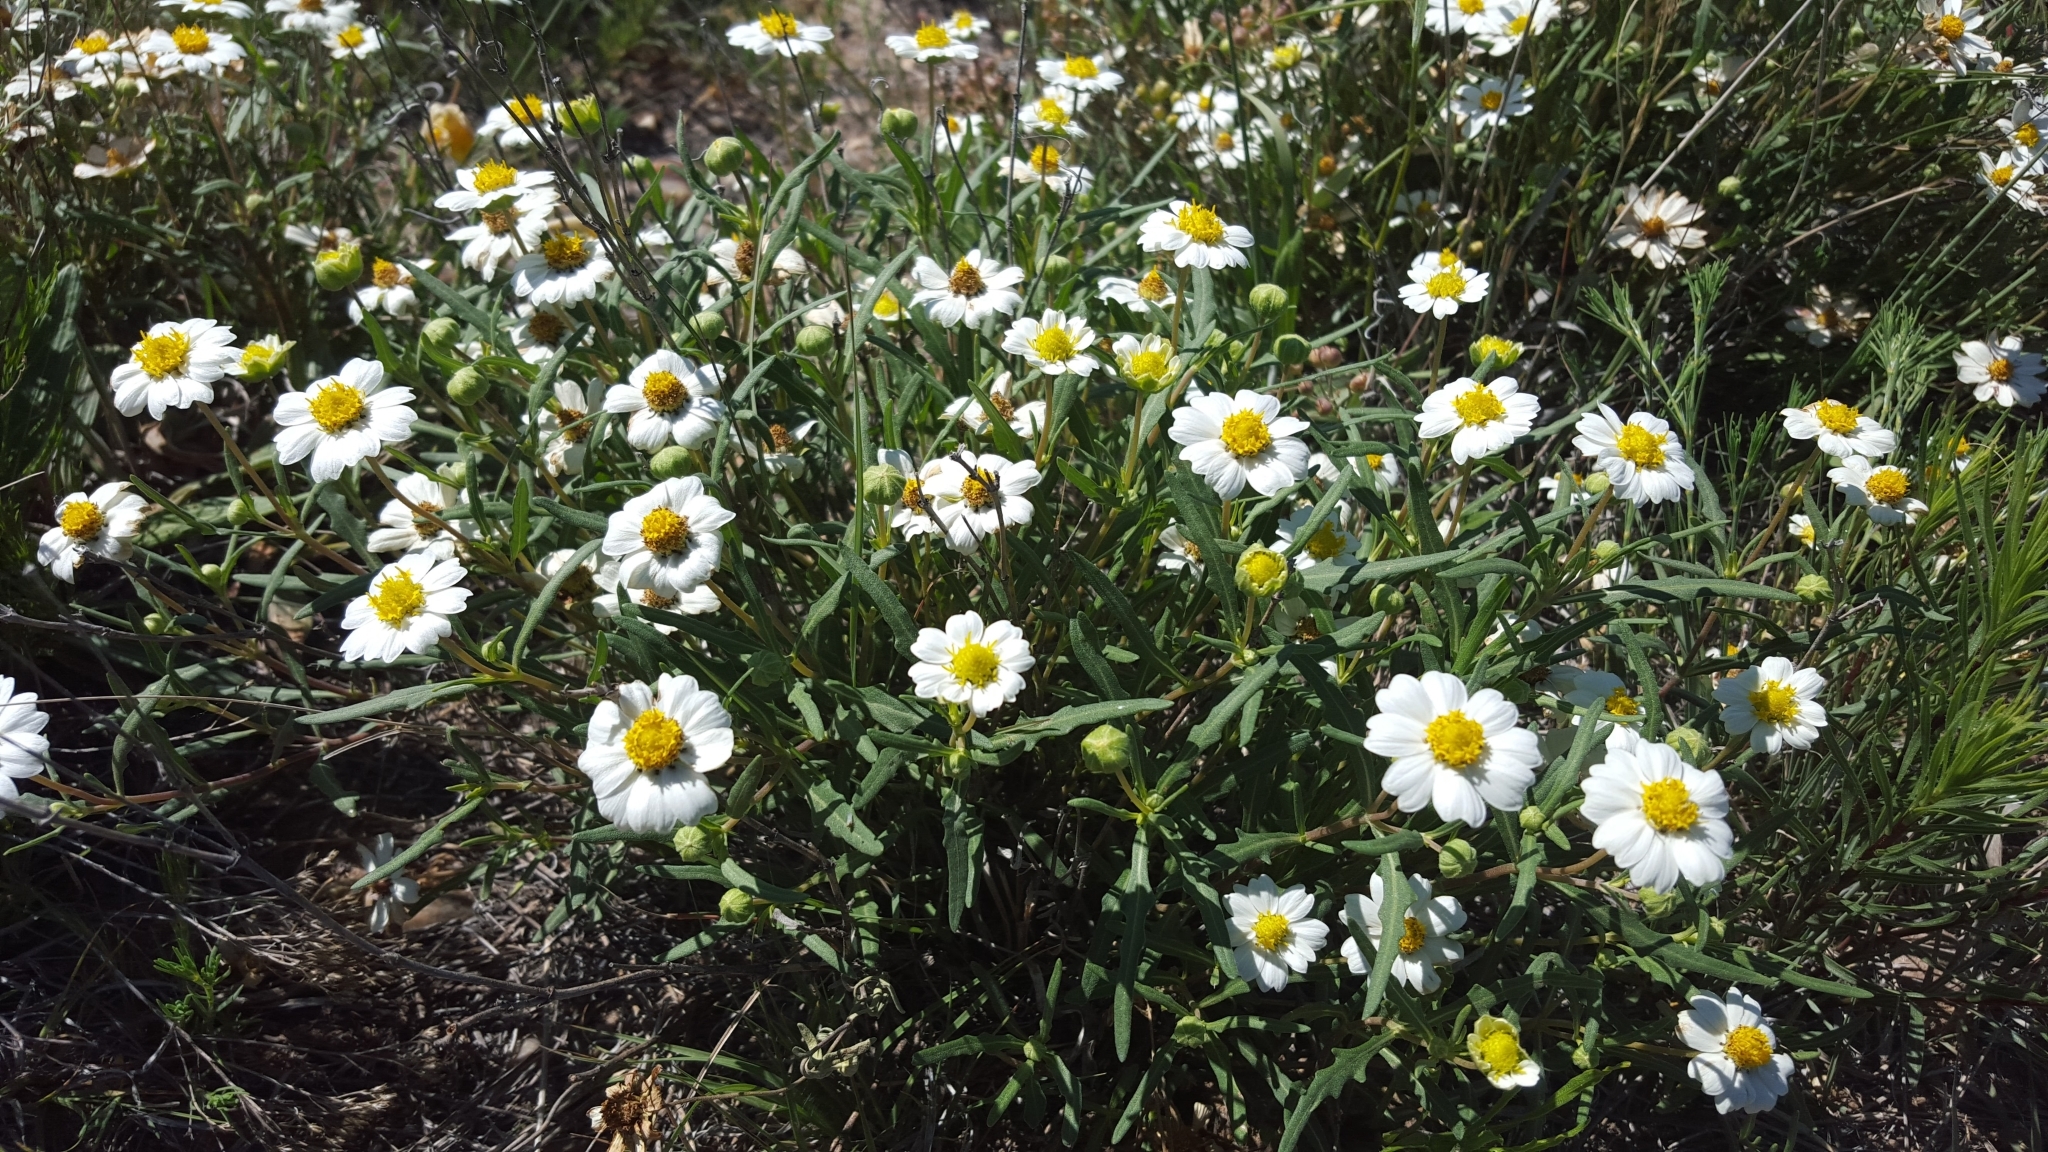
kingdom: Plantae
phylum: Tracheophyta
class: Magnoliopsida
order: Asterales
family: Asteraceae
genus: Melampodium
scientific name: Melampodium leucanthum
